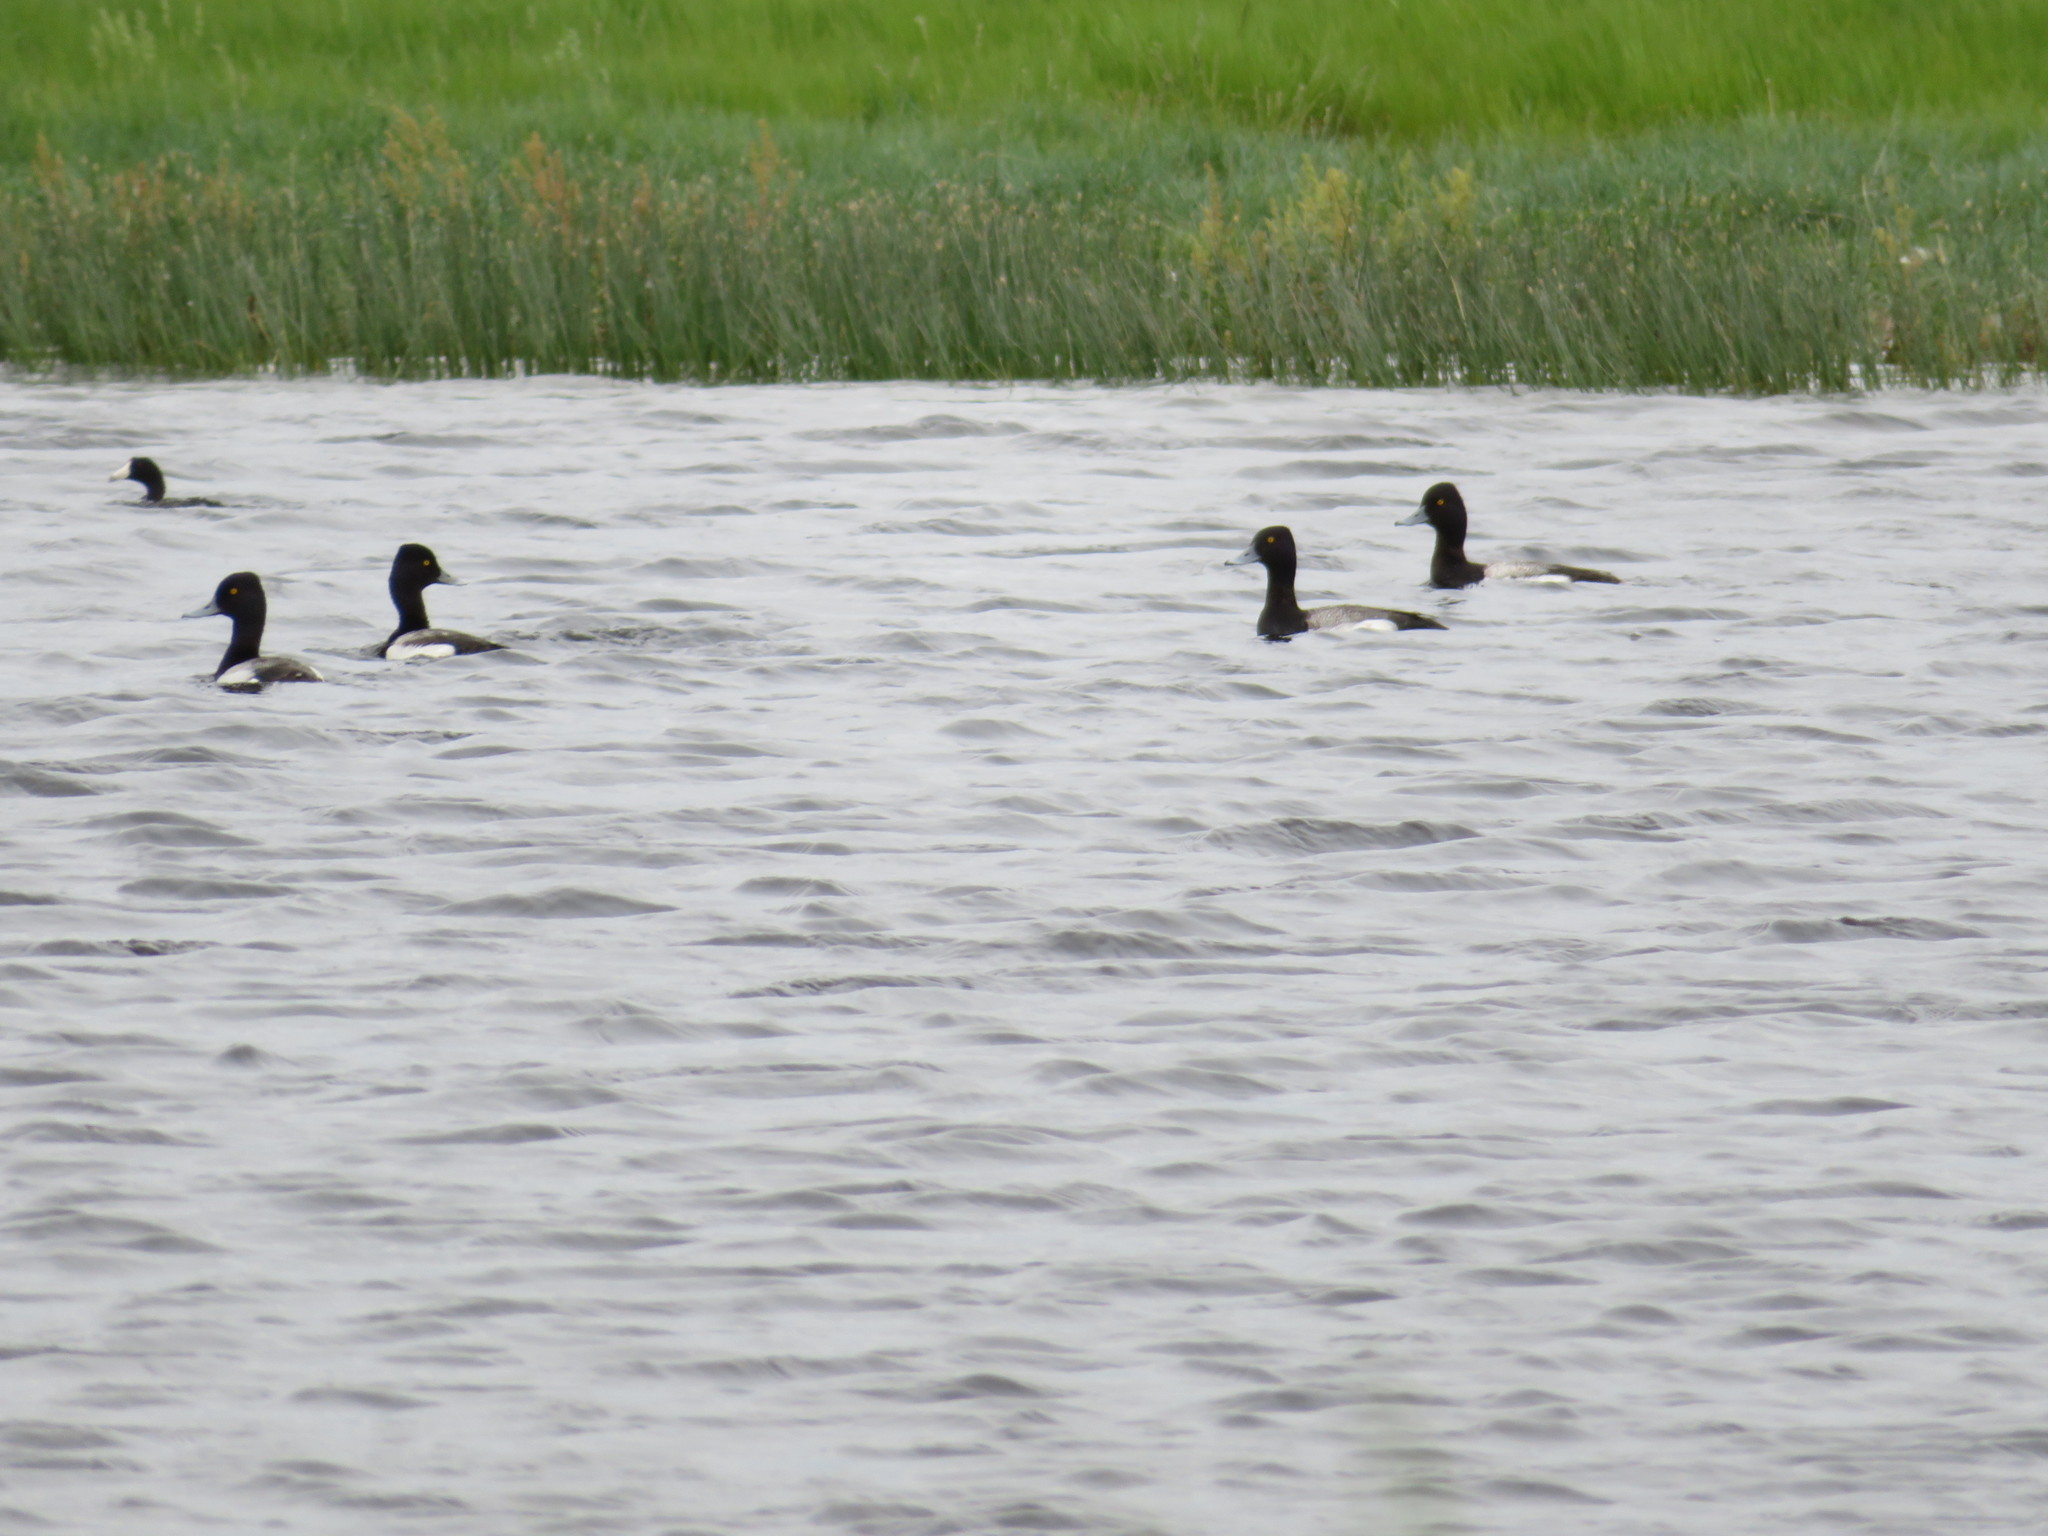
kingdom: Animalia
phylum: Chordata
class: Aves
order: Anseriformes
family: Anatidae
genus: Aythya
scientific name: Aythya affinis
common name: Lesser scaup
